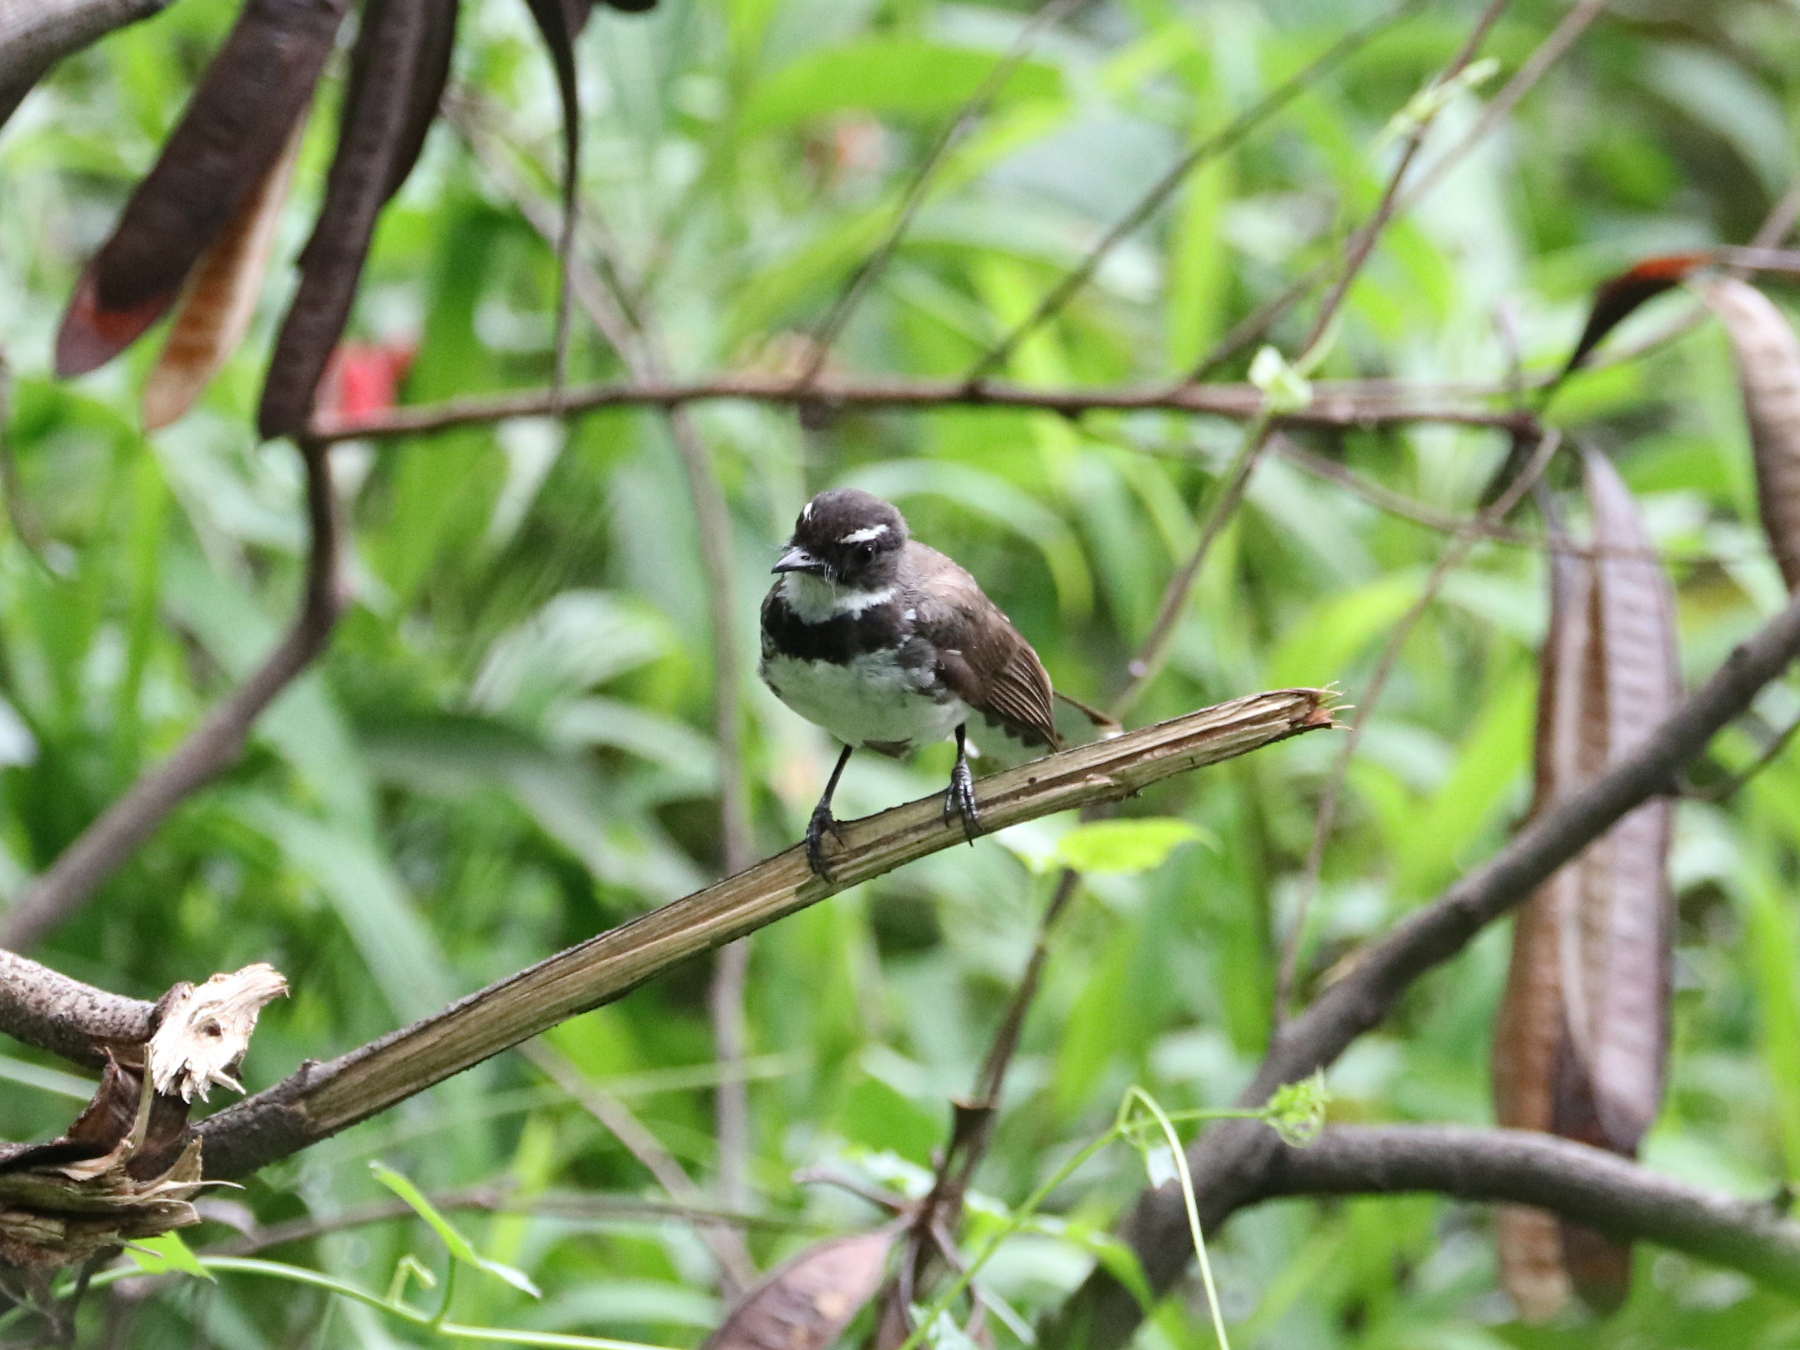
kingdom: Animalia
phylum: Chordata
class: Aves
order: Passeriformes
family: Rhipiduridae
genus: Rhipidura
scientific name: Rhipidura nigritorquis
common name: Philippine pied fantail
